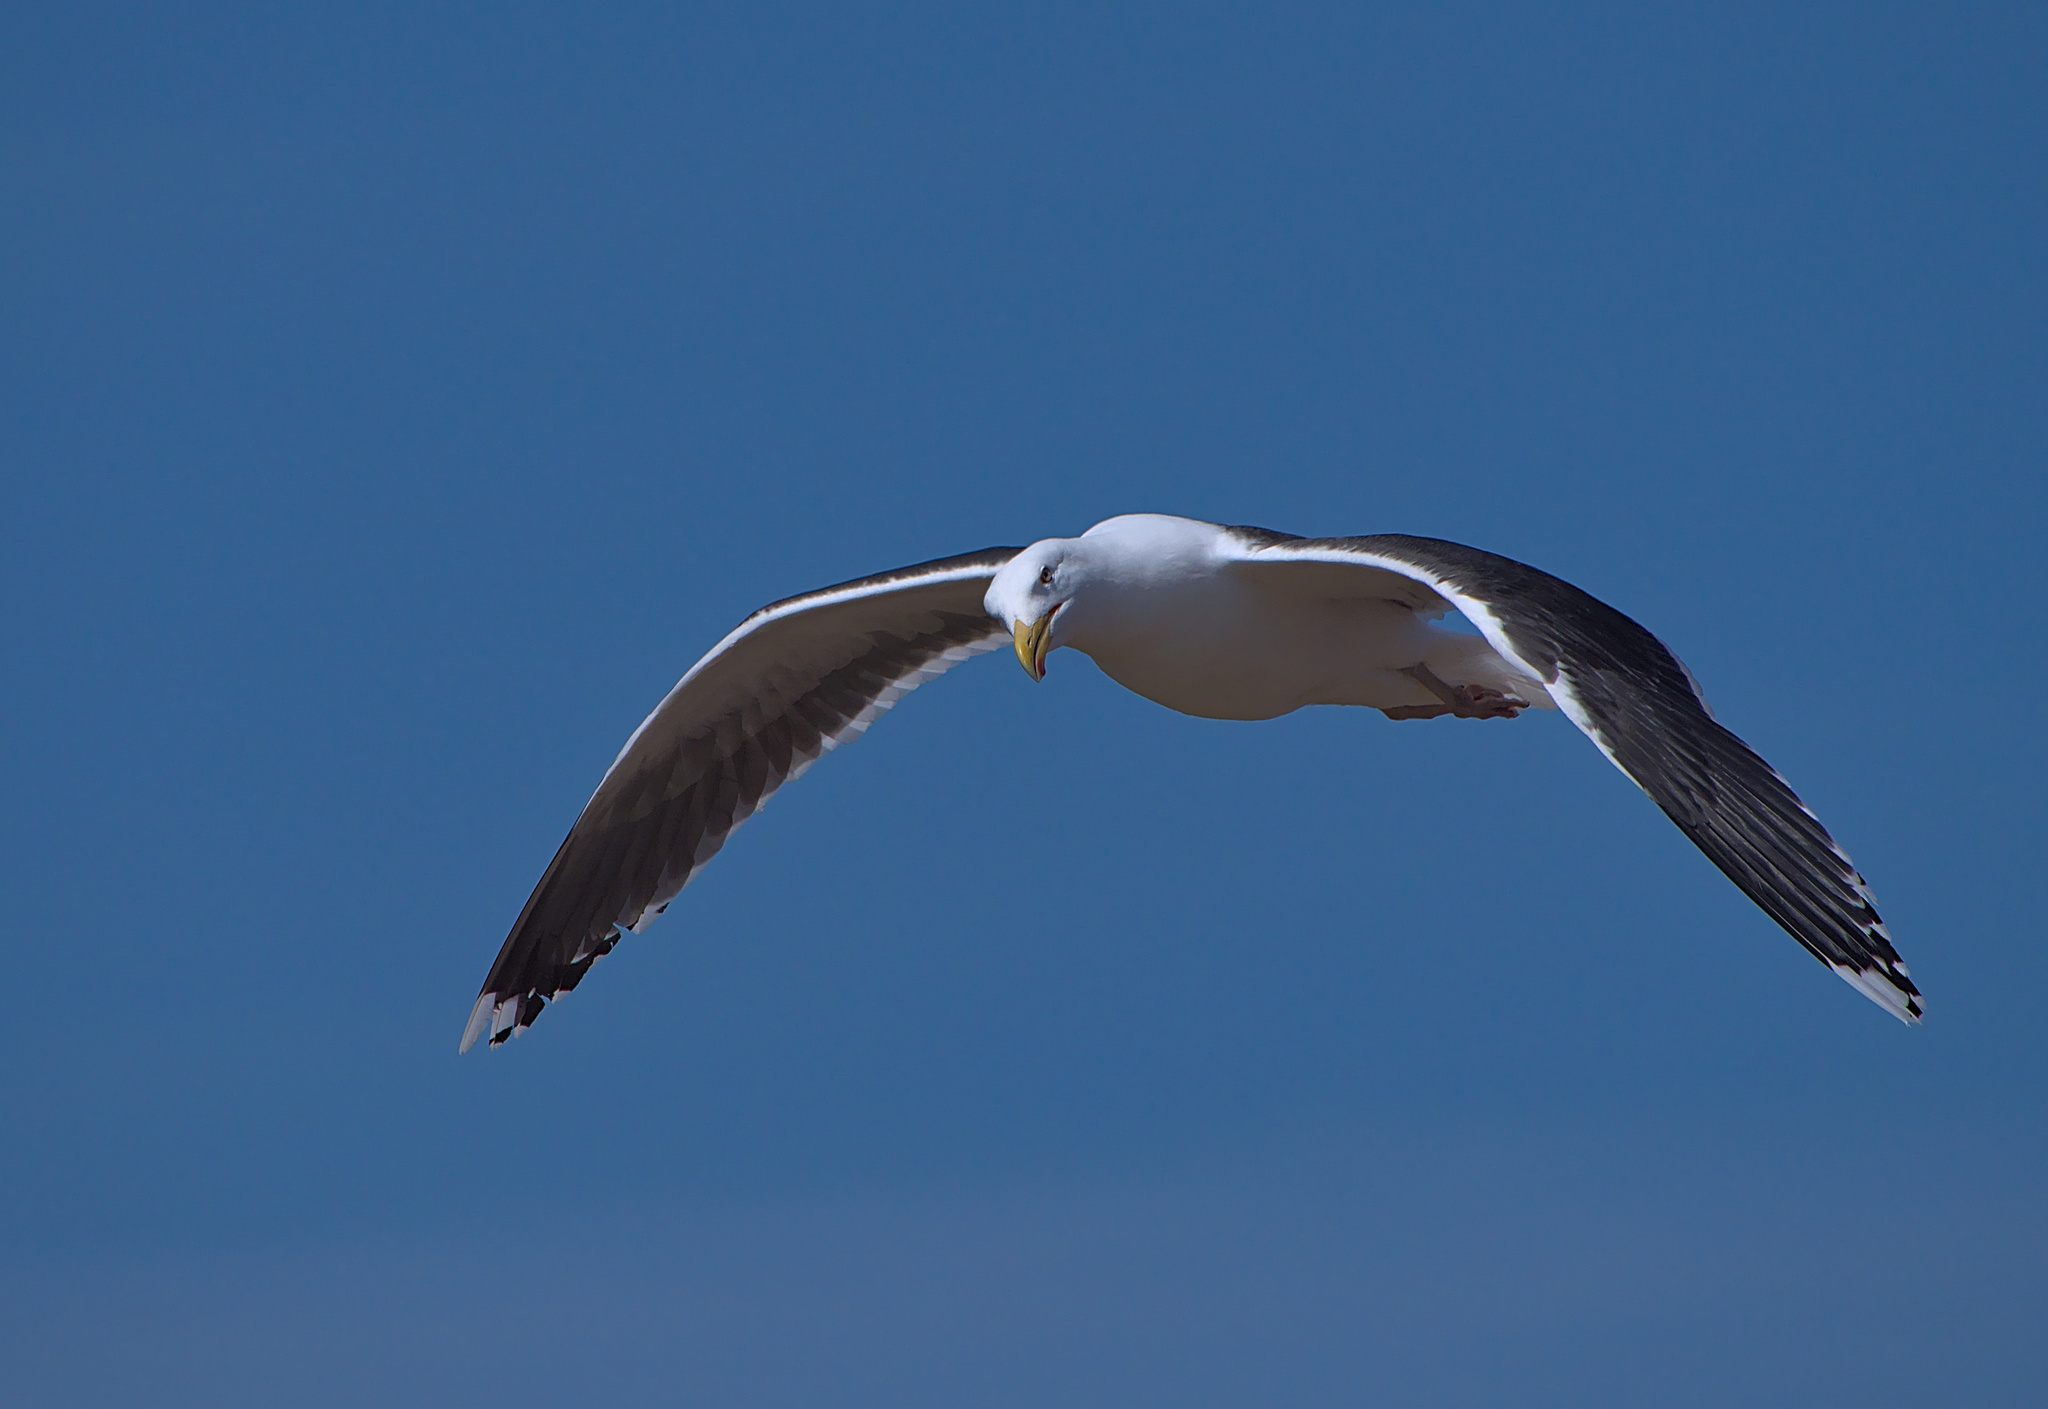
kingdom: Animalia
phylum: Chordata
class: Aves
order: Charadriiformes
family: Laridae
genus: Larus
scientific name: Larus marinus
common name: Great black-backed gull
